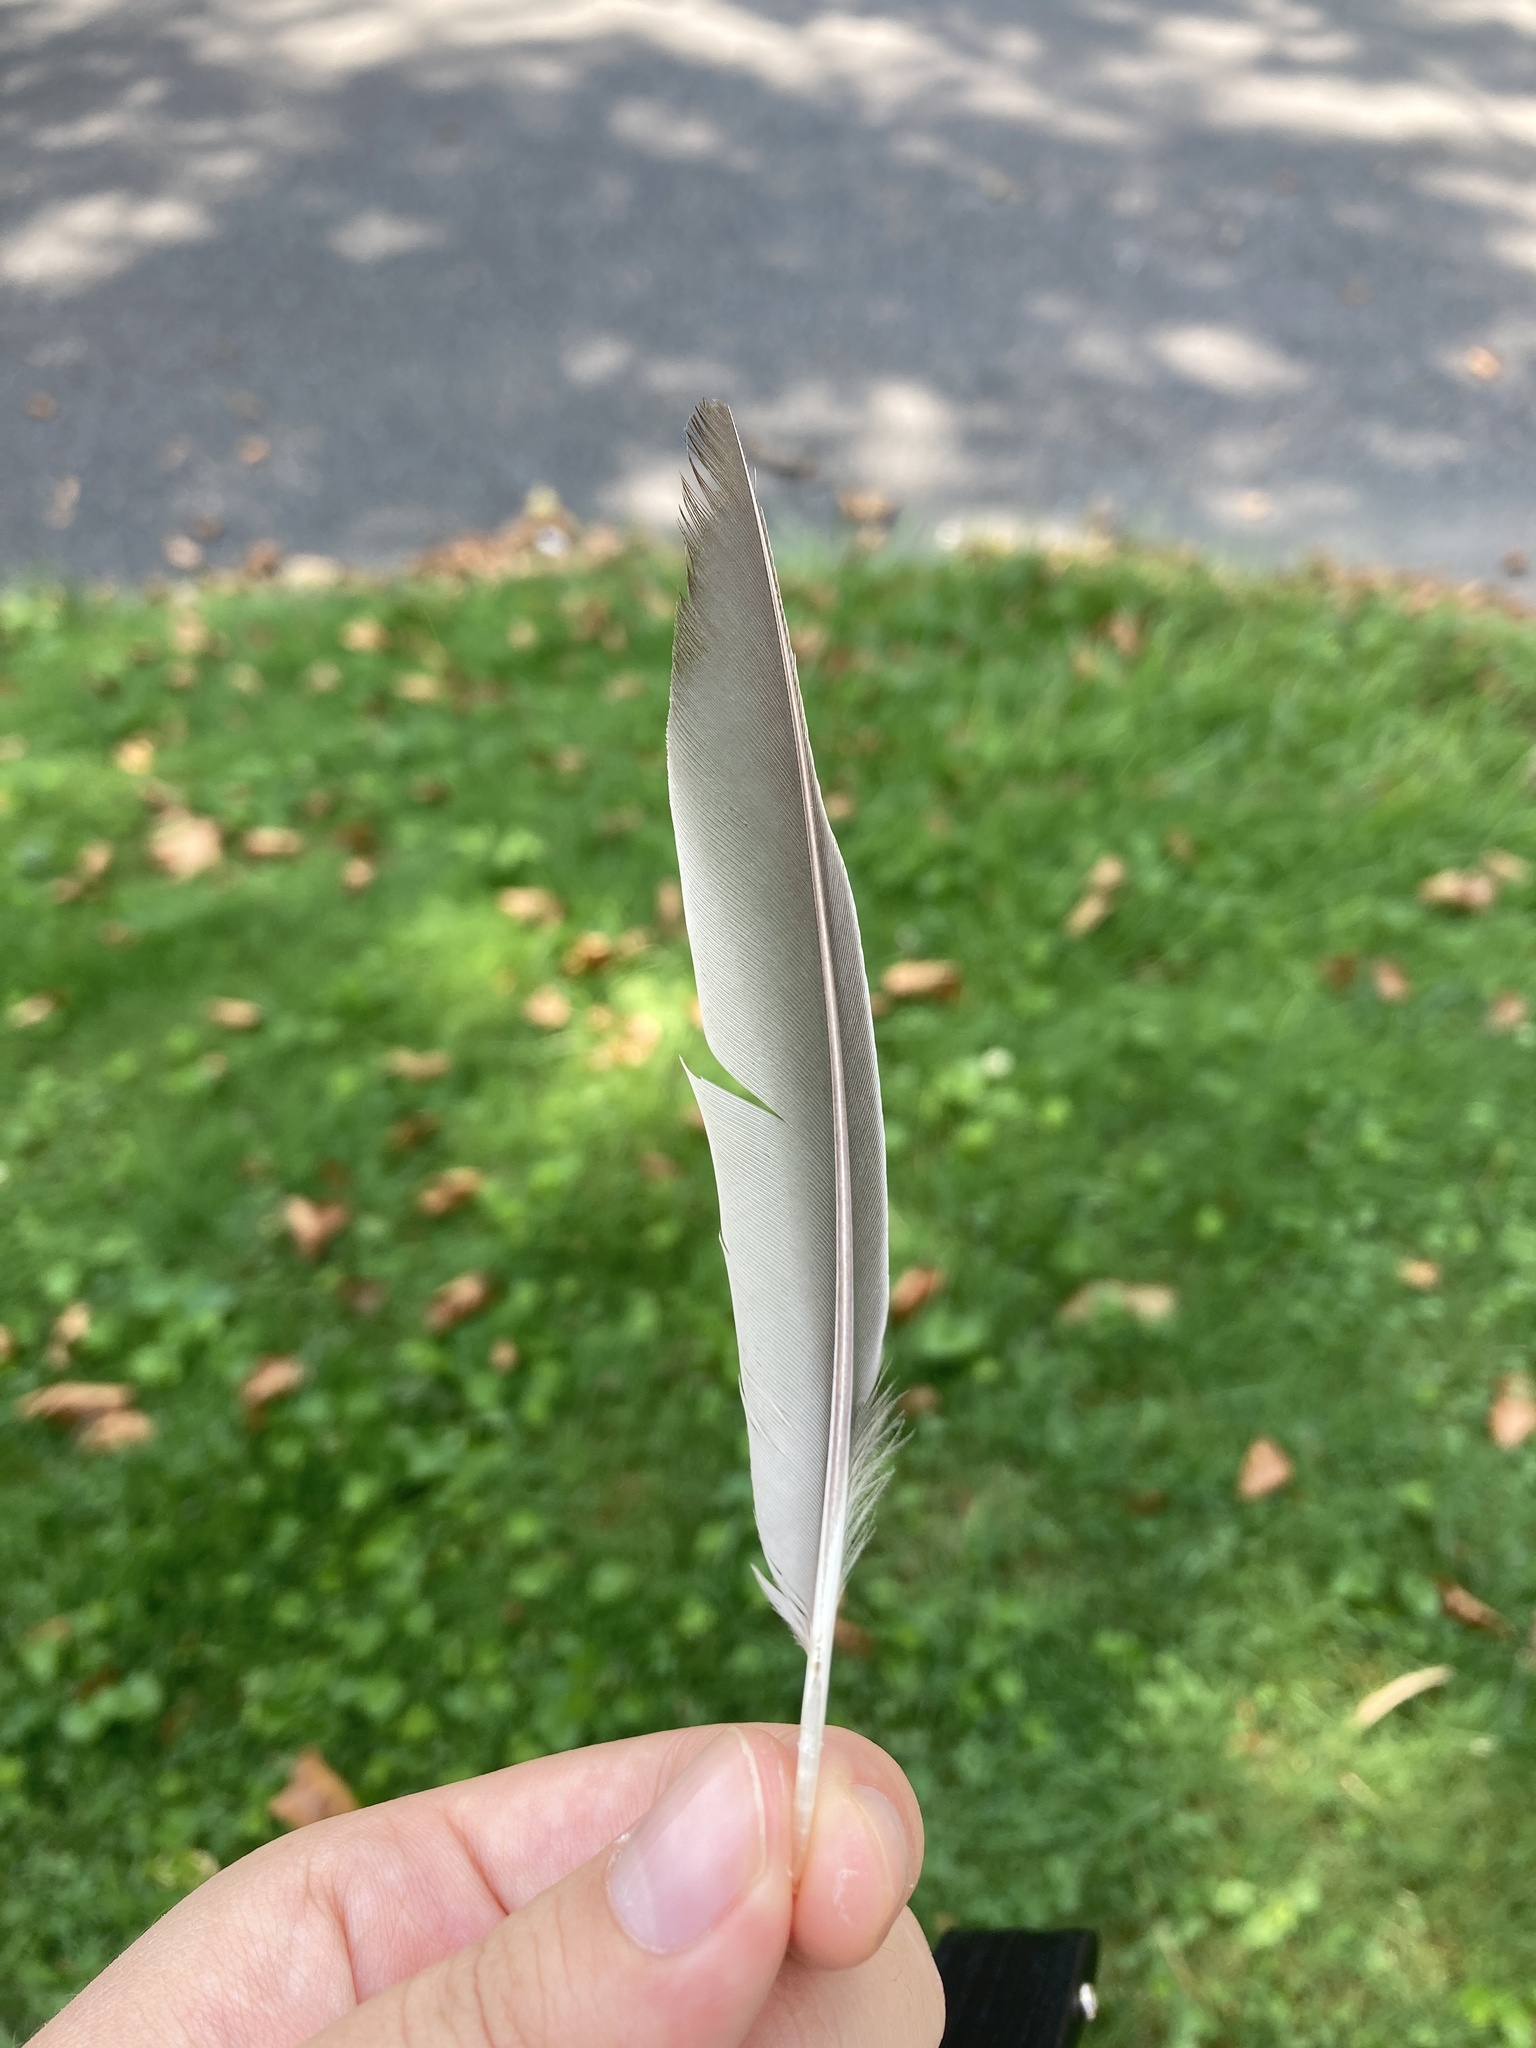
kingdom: Animalia
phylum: Chordata
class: Aves
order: Passeriformes
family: Turdidae
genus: Turdus
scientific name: Turdus migratorius
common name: American robin
